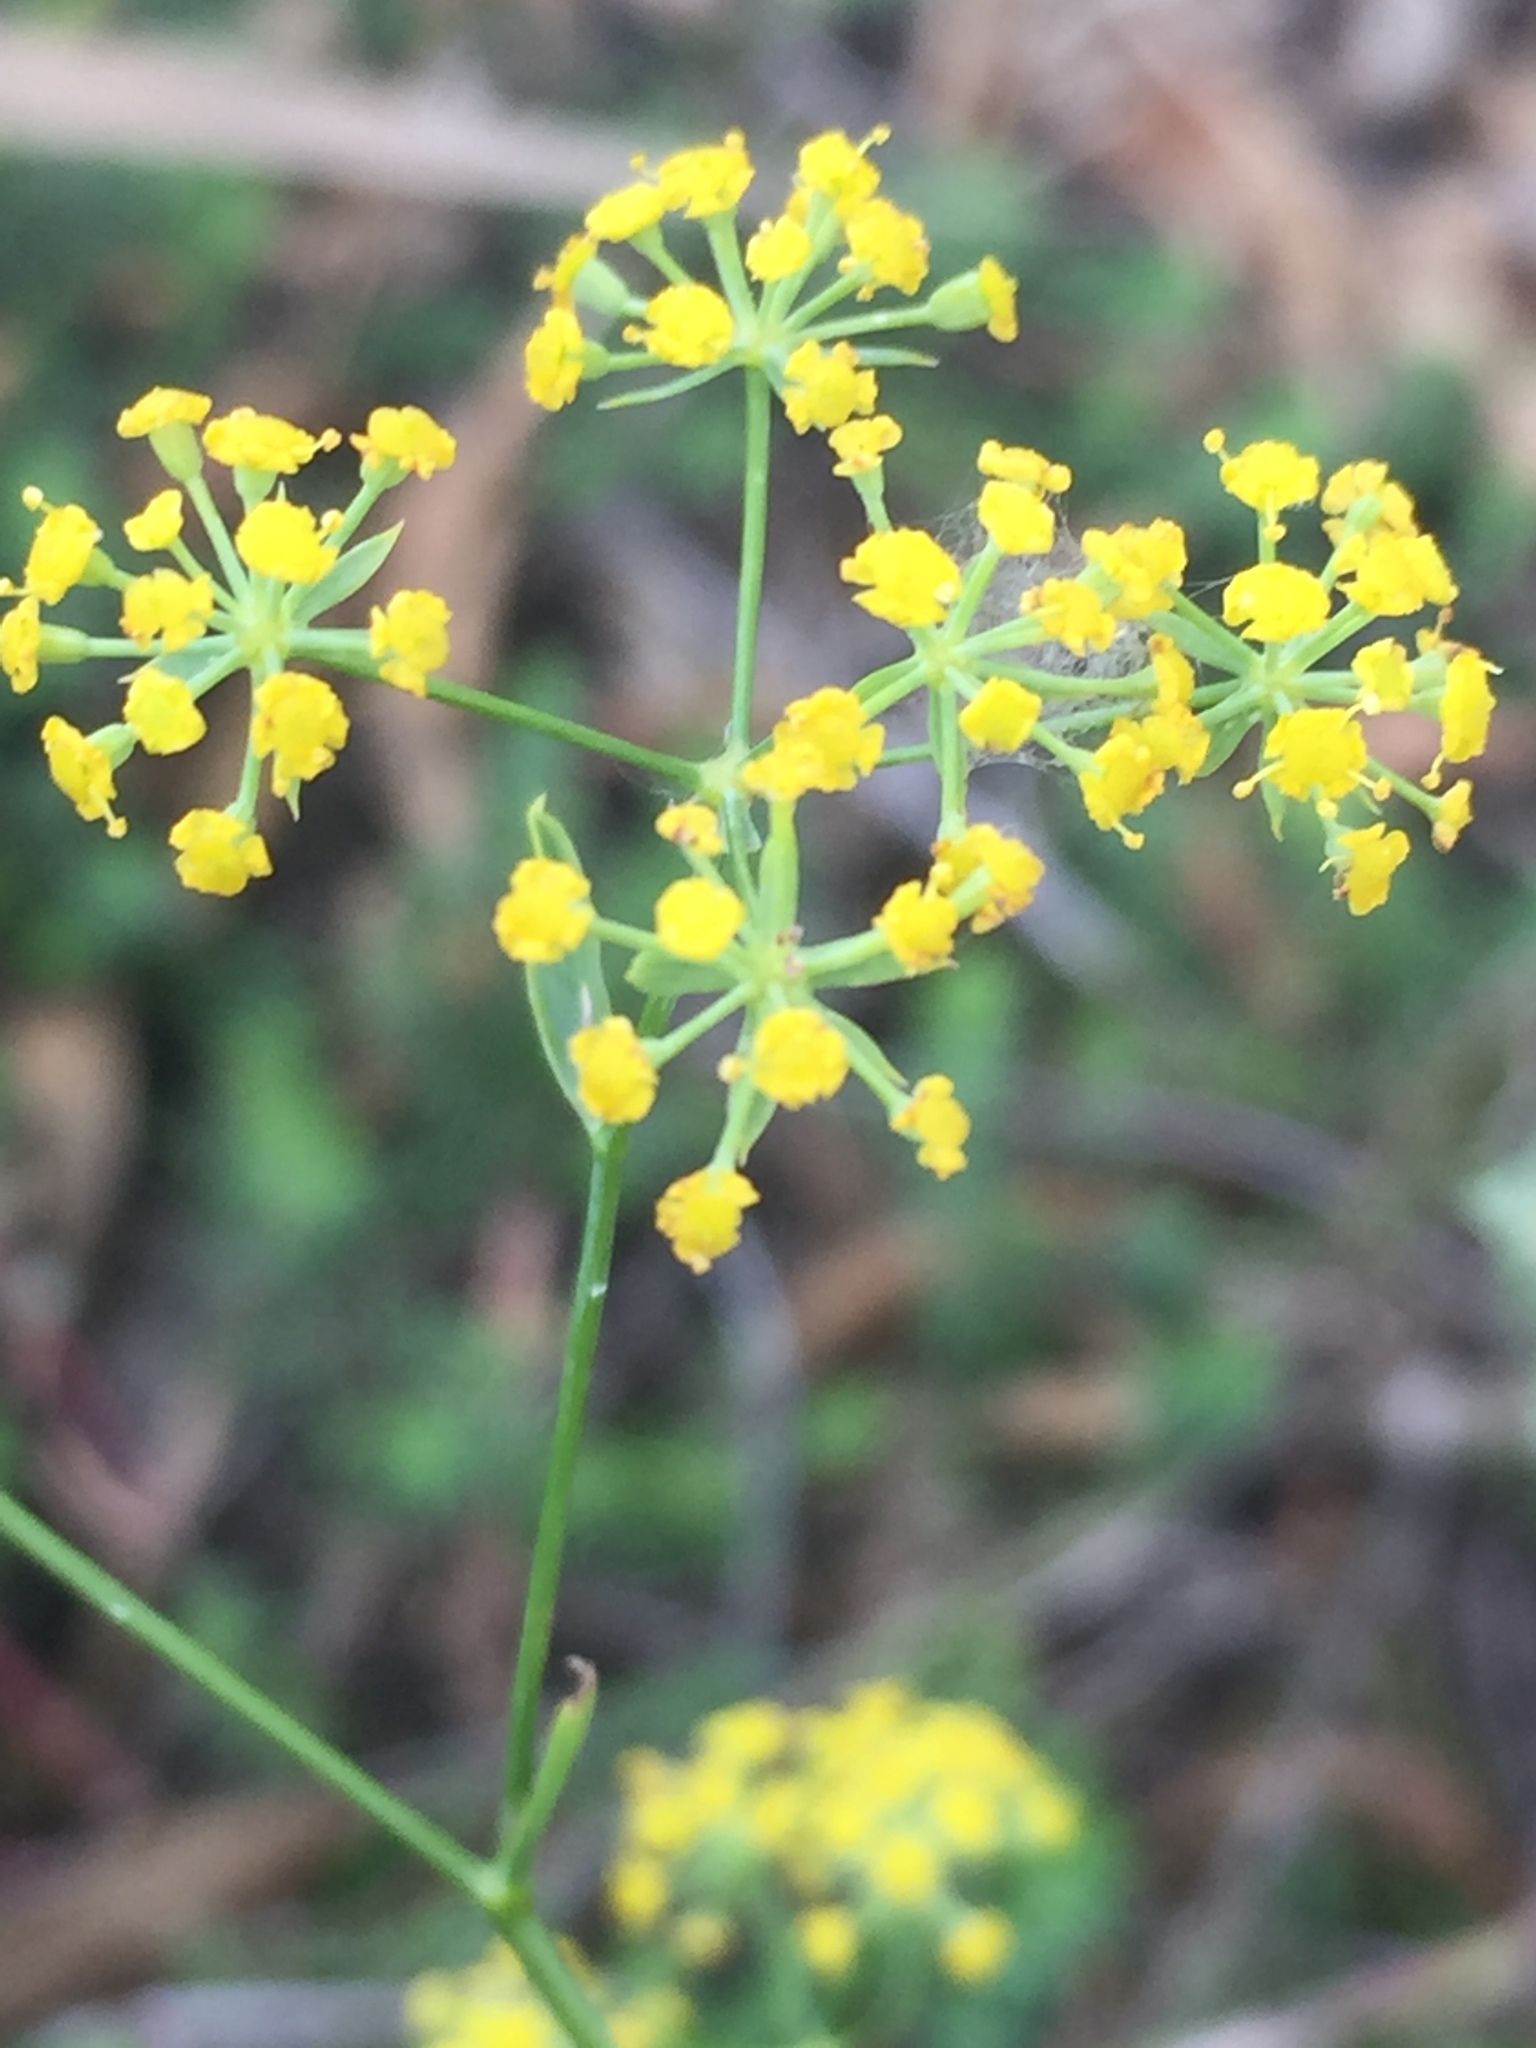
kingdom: Plantae
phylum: Tracheophyta
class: Magnoliopsida
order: Apiales
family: Apiaceae
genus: Bupleurum
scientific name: Bupleurum falcatum
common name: Sickle-leaved hare's-ear
